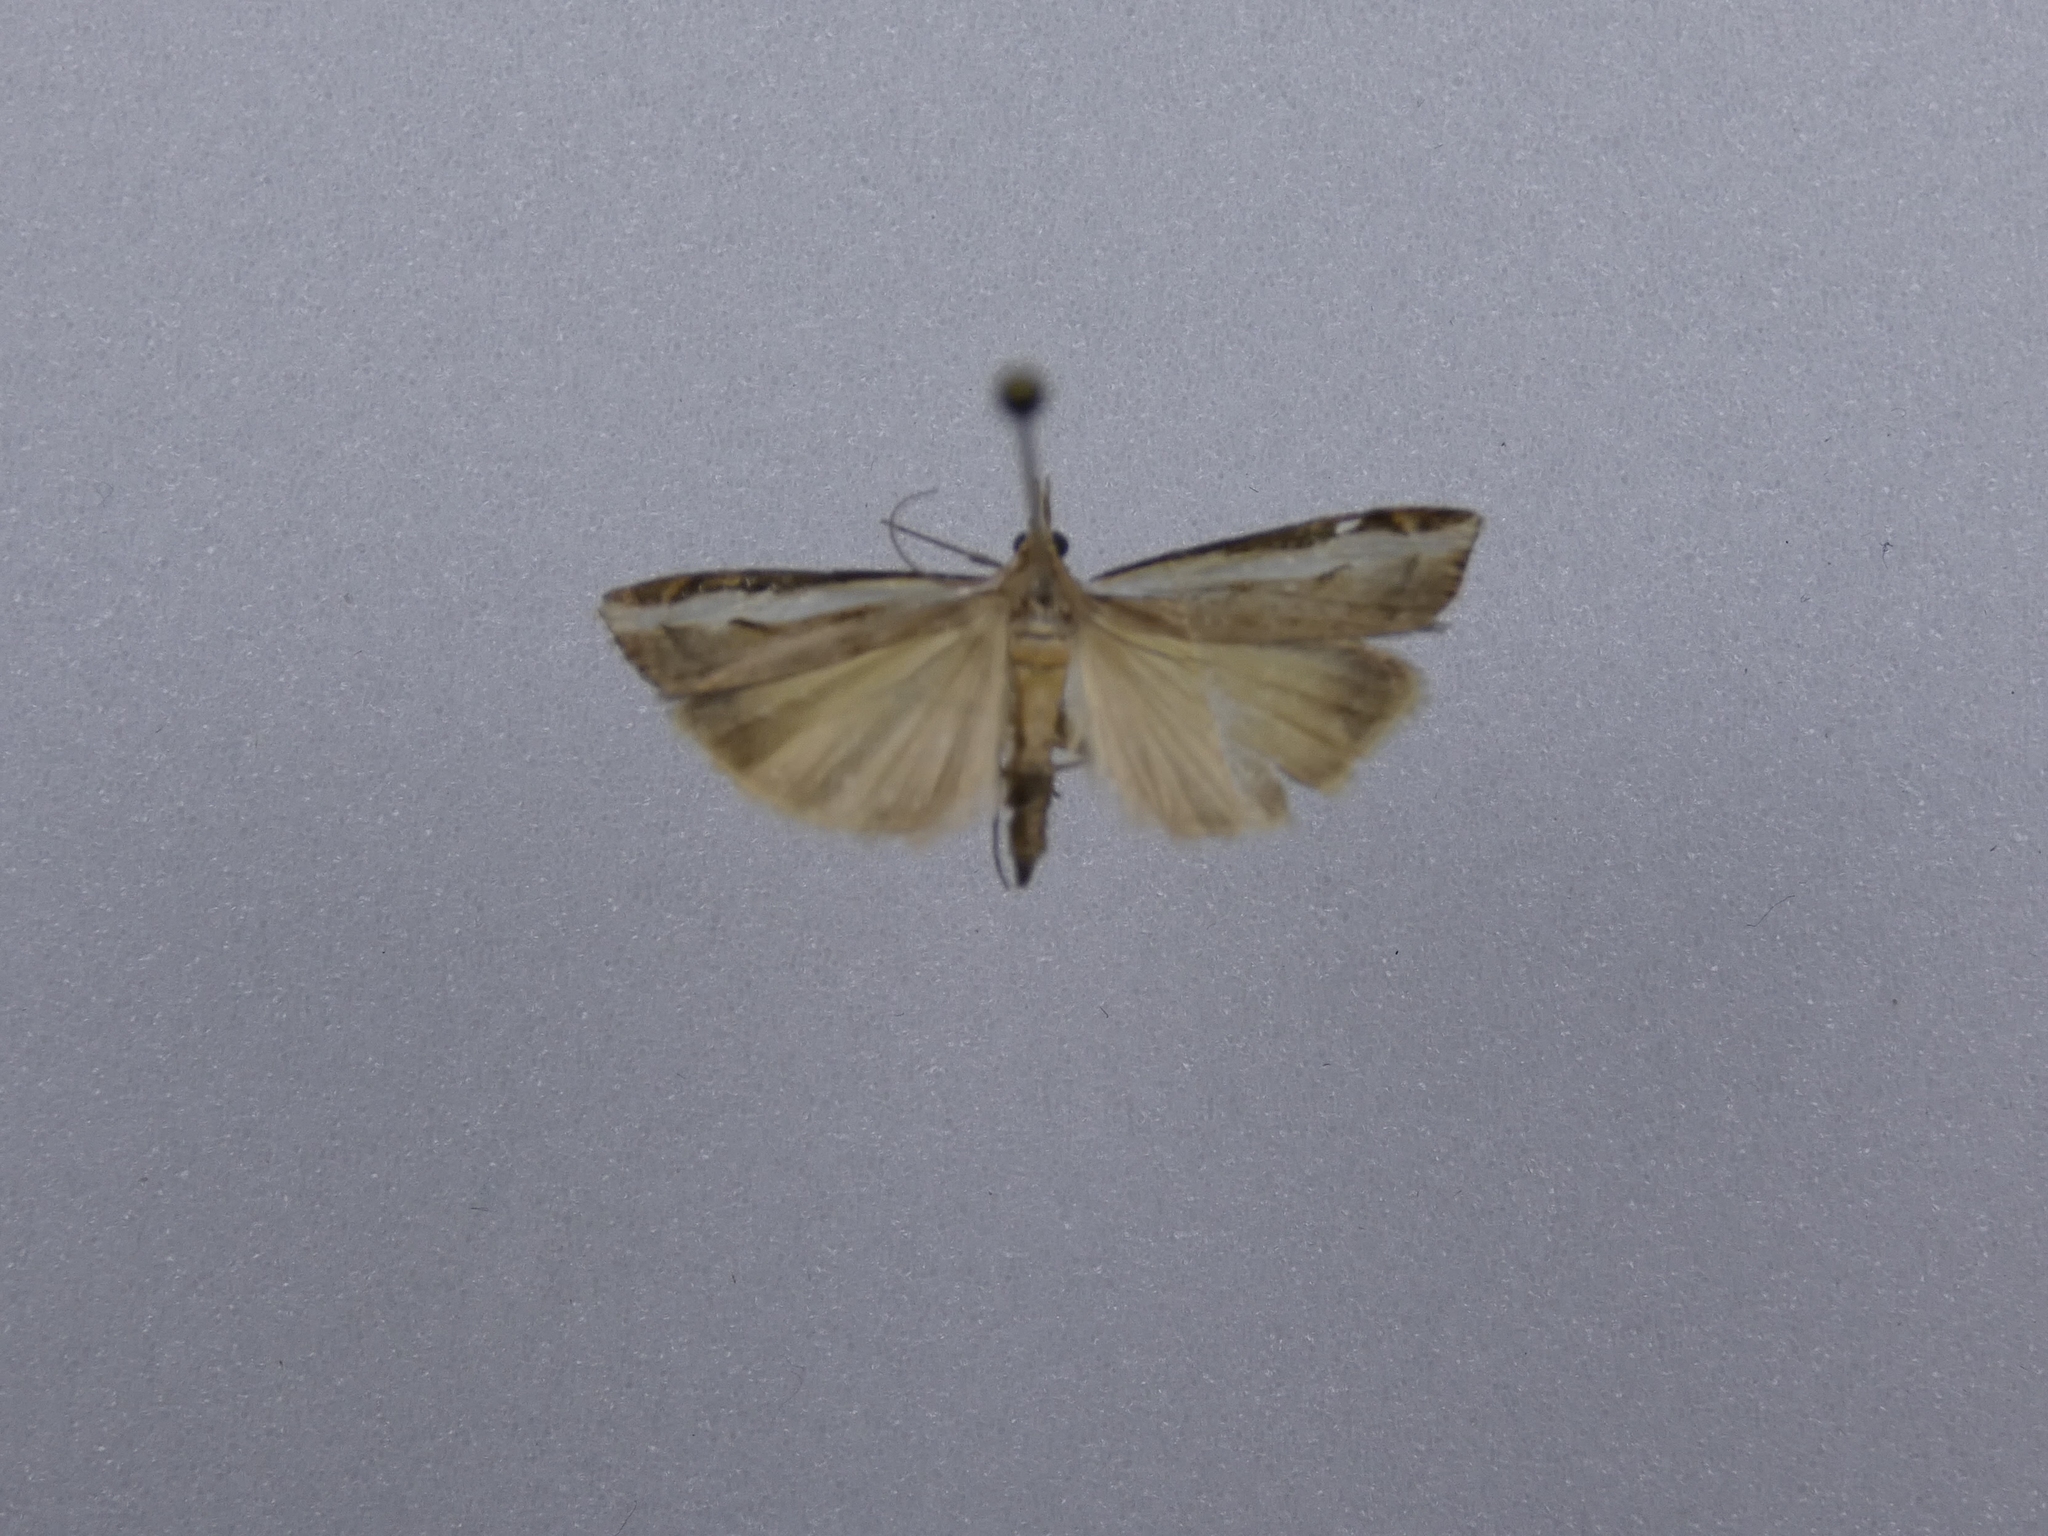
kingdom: Animalia
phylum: Arthropoda
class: Insecta
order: Lepidoptera
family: Crambidae
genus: Orocrambus
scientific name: Orocrambus flexuosellus
